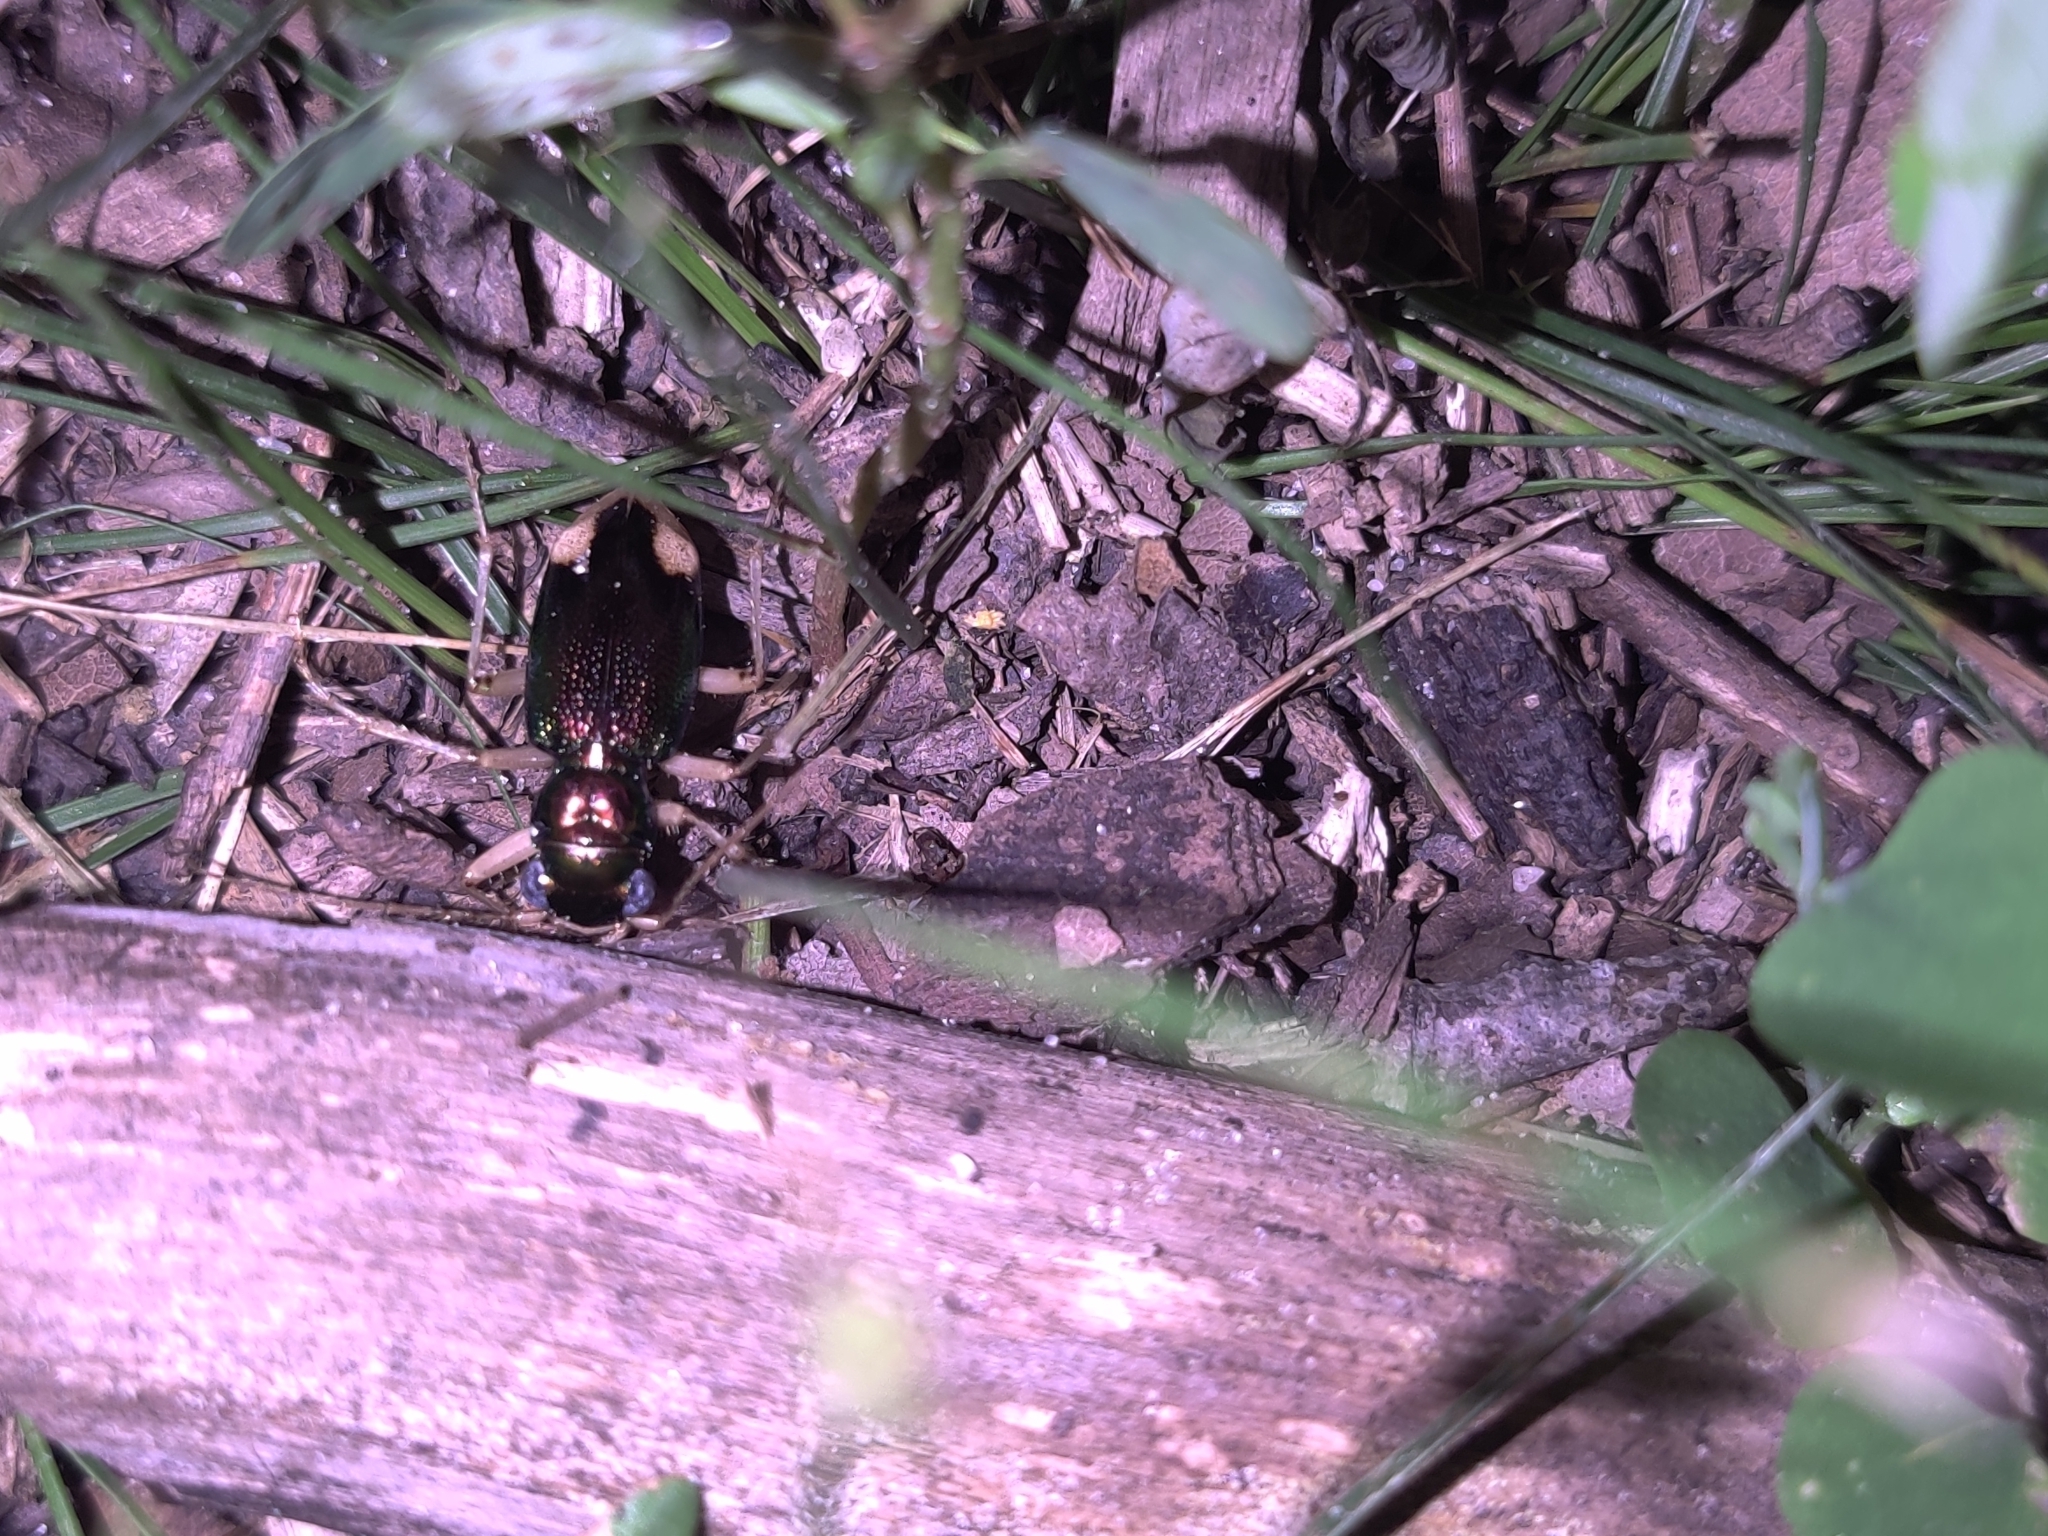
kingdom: Animalia
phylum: Arthropoda
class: Insecta
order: Coleoptera
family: Carabidae
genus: Tetracha
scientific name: Tetracha carolina
